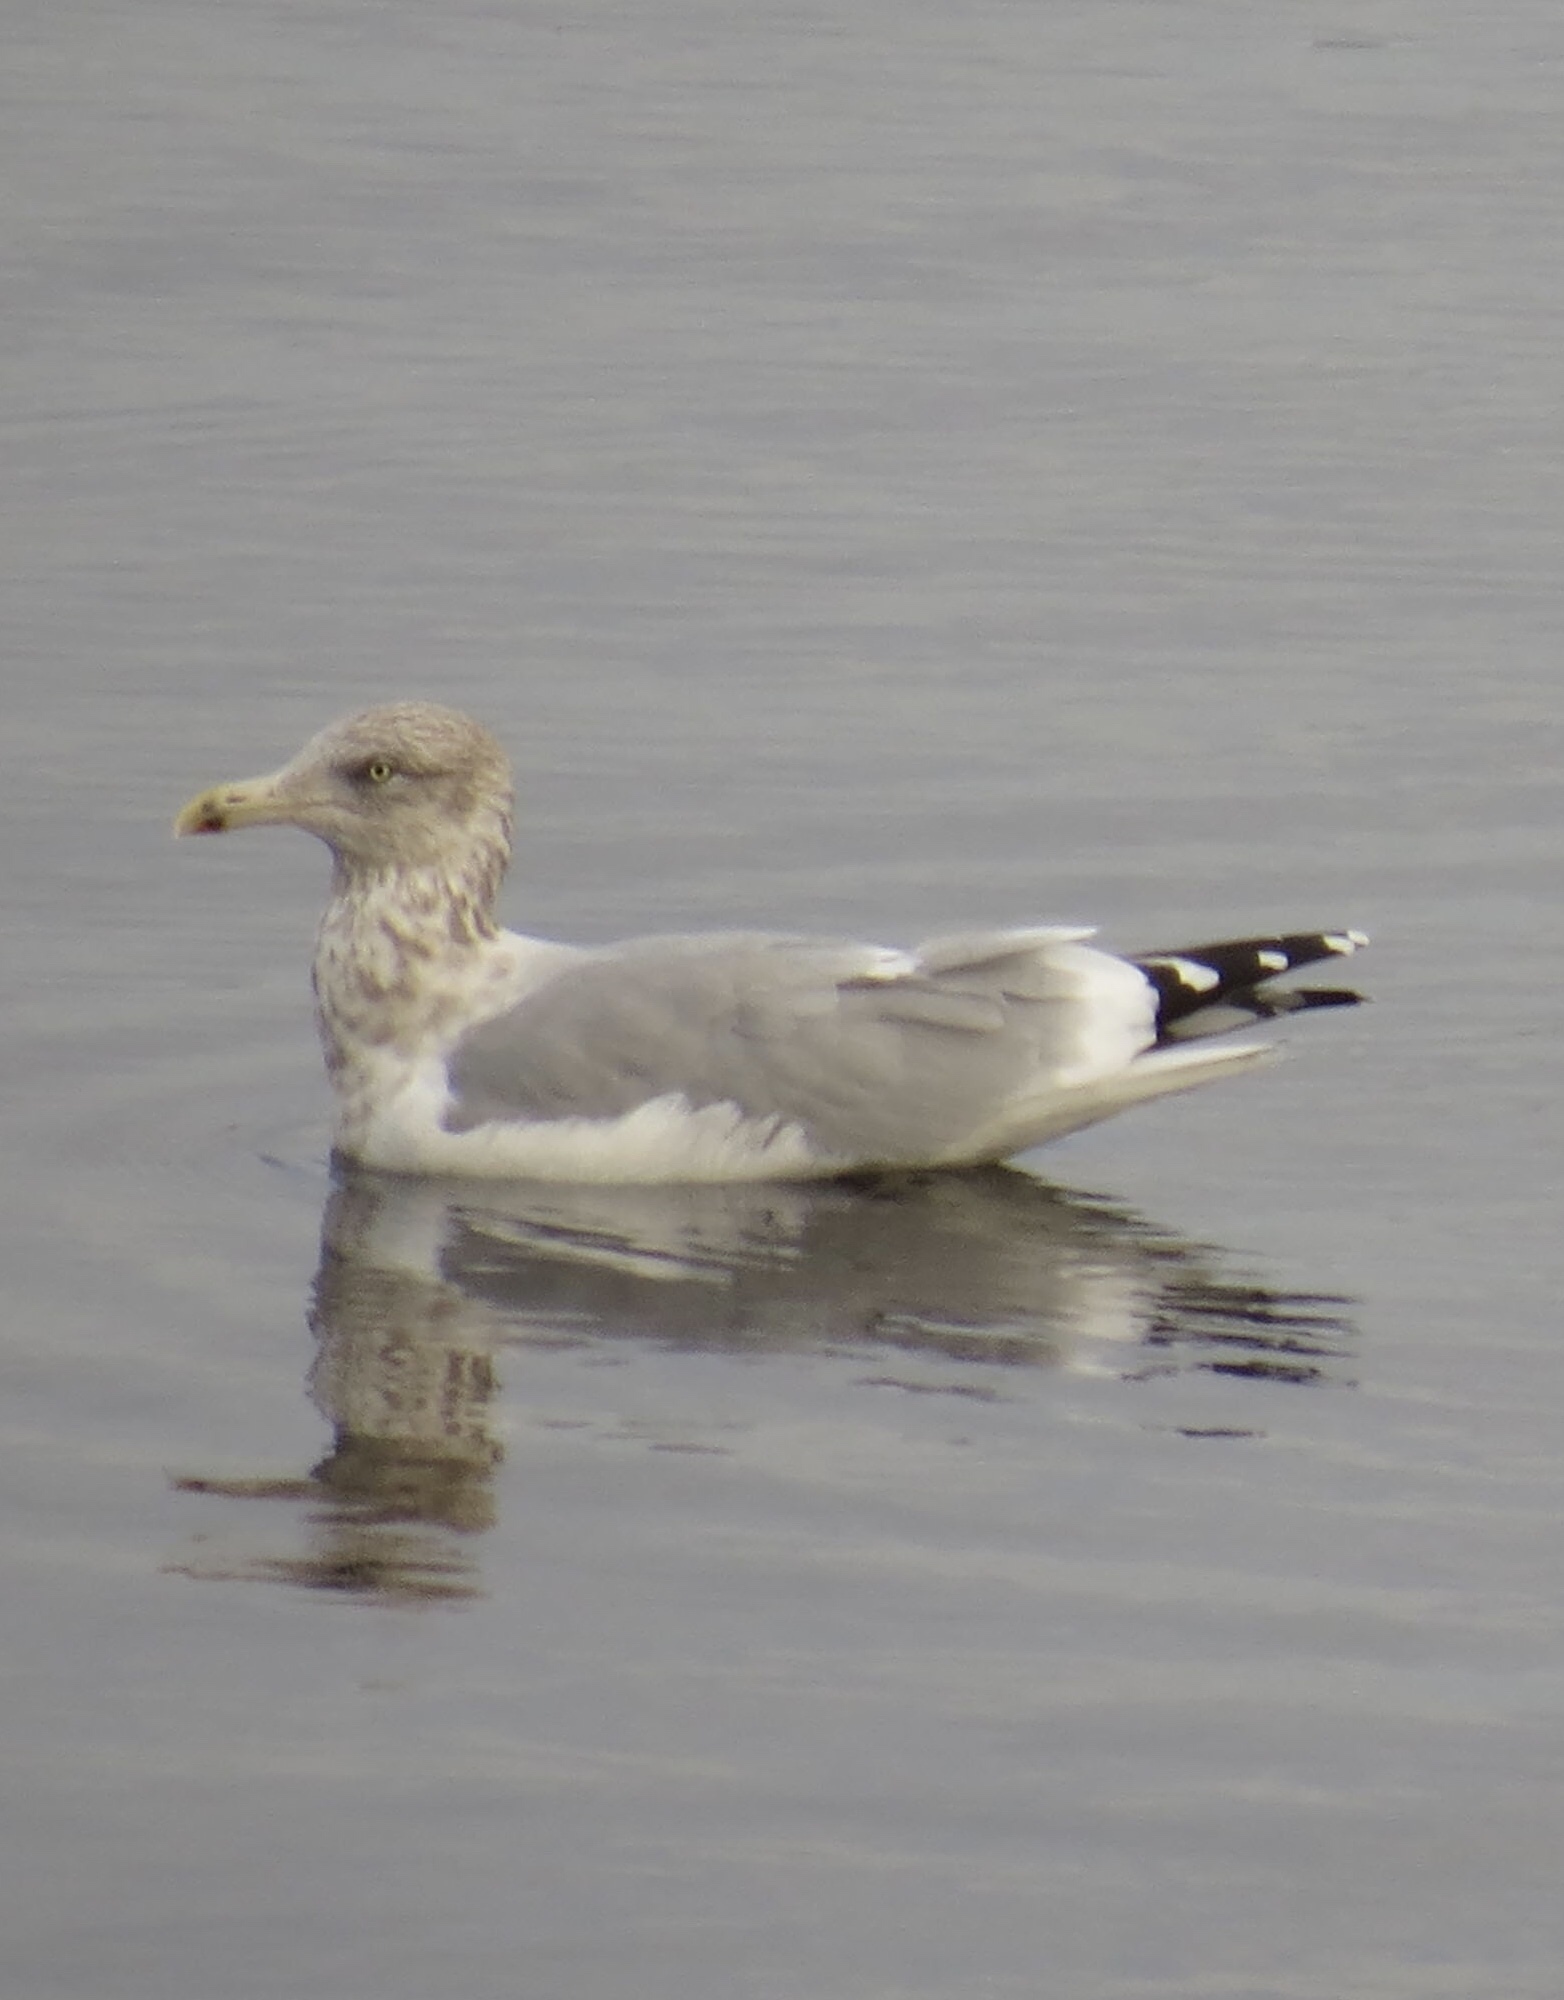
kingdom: Animalia
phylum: Chordata
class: Aves
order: Charadriiformes
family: Laridae
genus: Larus
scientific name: Larus argentatus
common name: Herring gull
